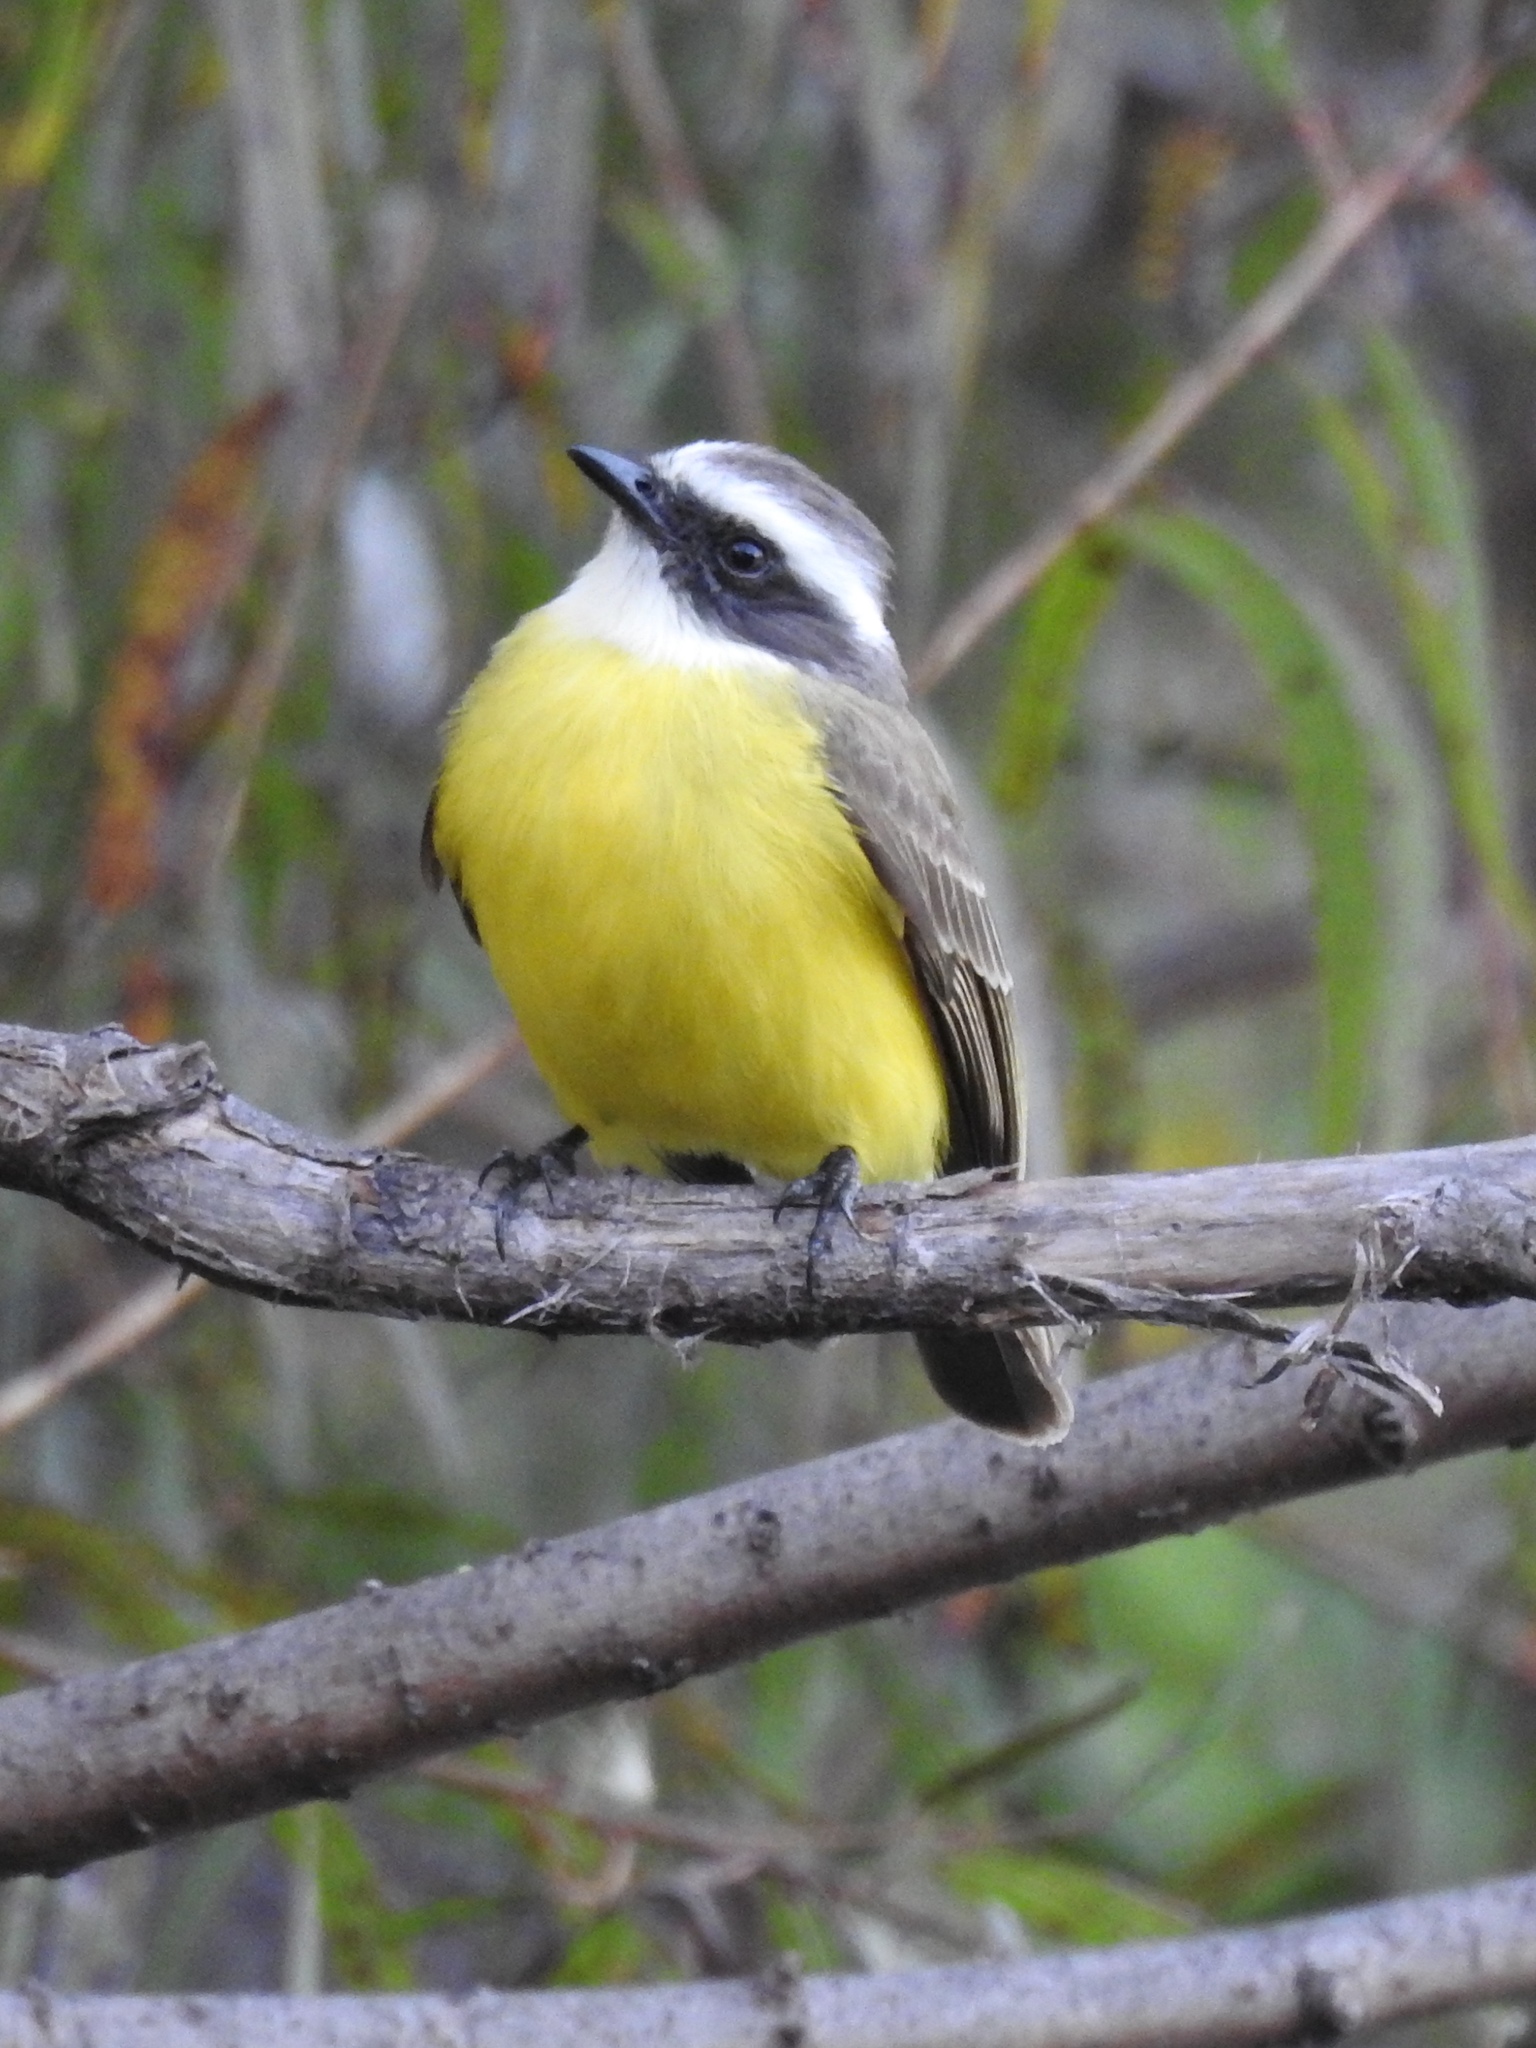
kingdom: Animalia
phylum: Chordata
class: Aves
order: Passeriformes
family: Tyrannidae
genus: Myiozetetes
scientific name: Myiozetetes similis
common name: Social flycatcher
